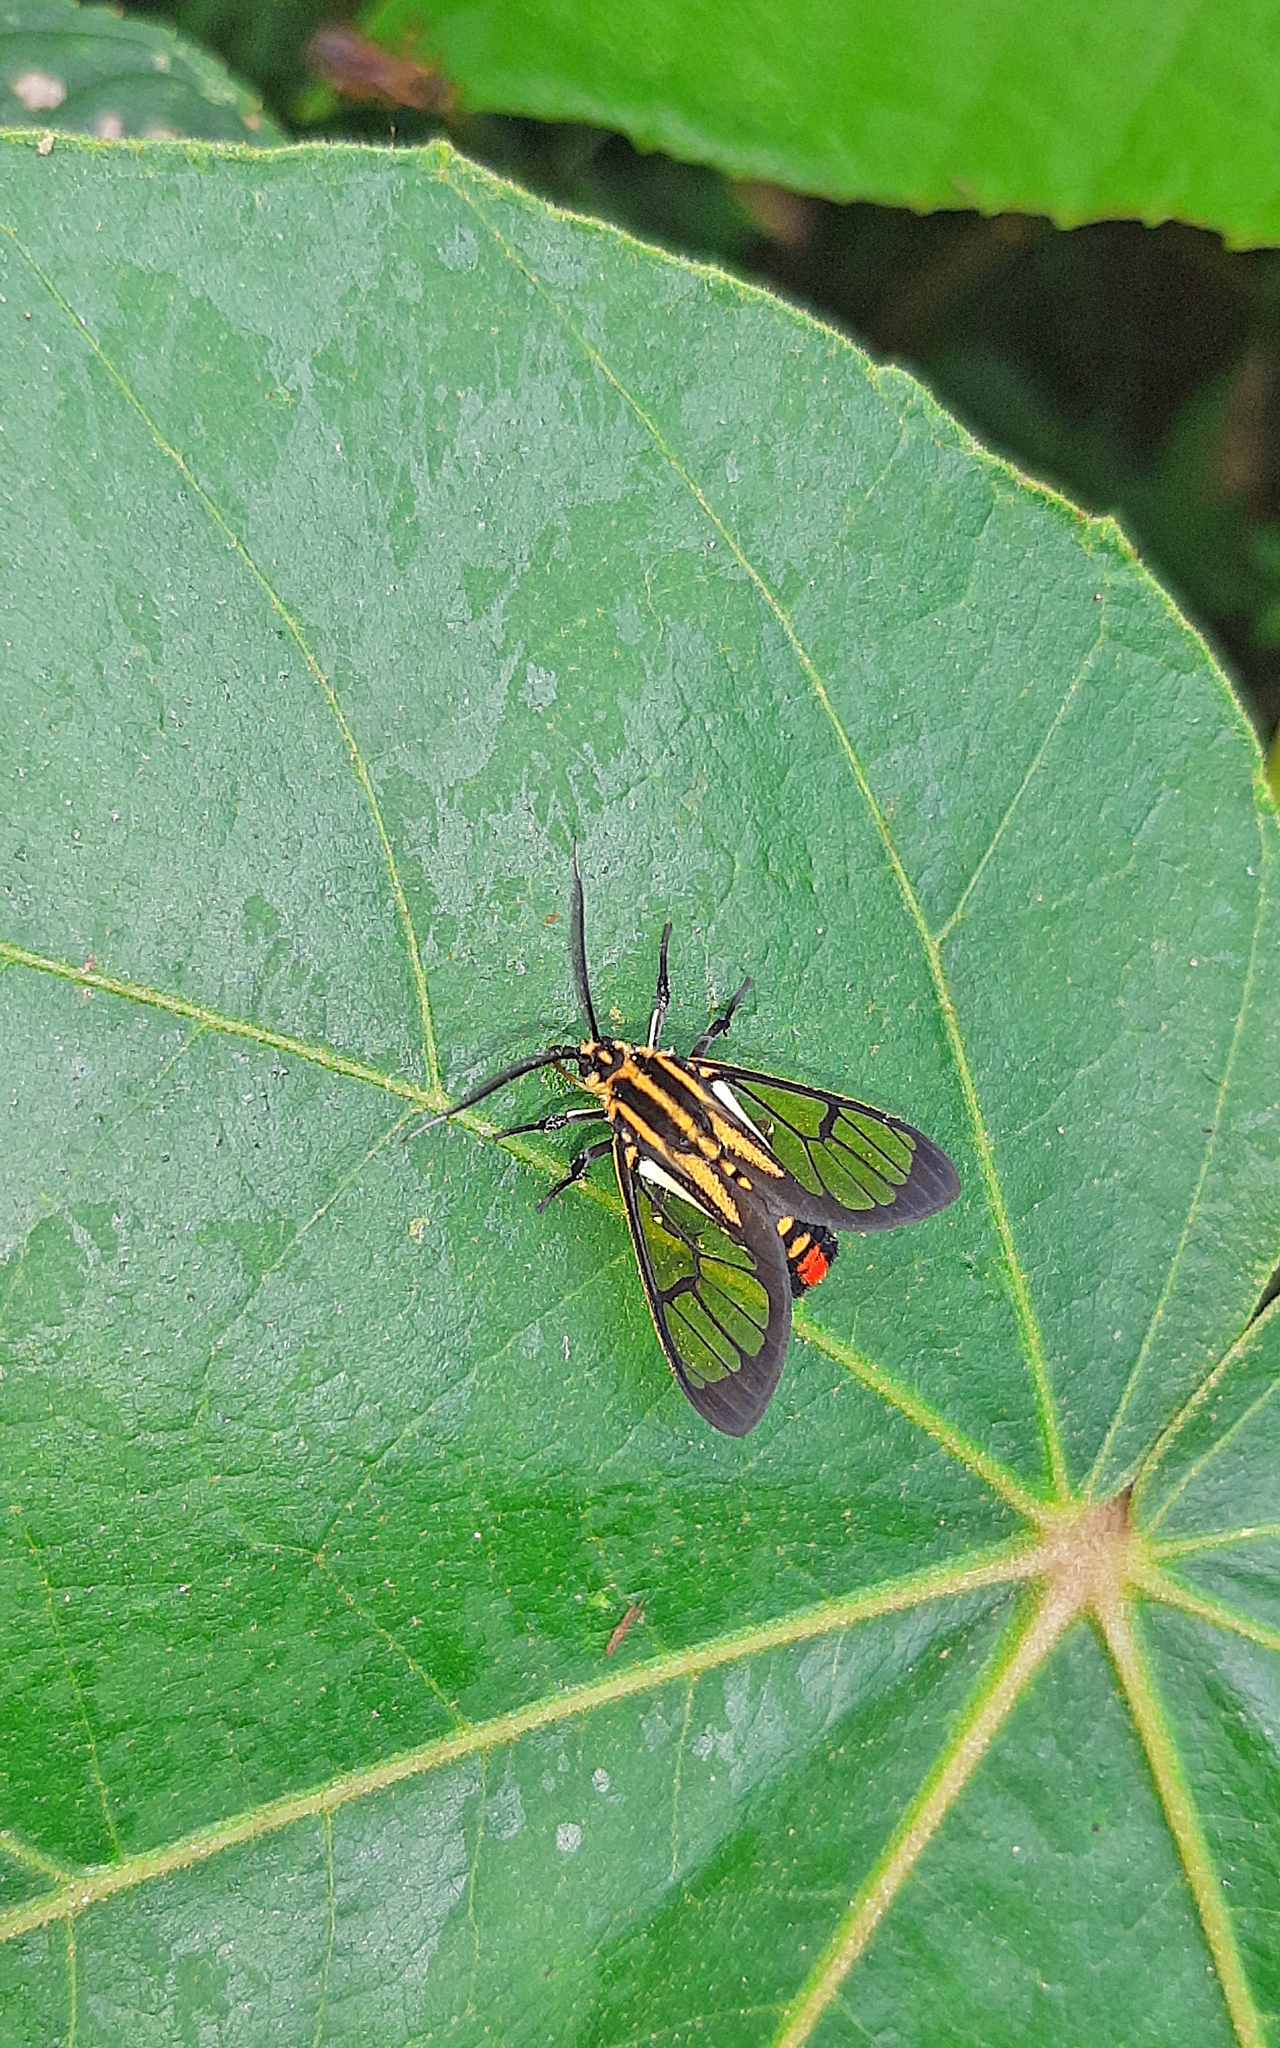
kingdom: Animalia
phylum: Arthropoda
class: Insecta
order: Lepidoptera
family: Erebidae
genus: Paraethria
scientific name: Paraethria flavosignata
